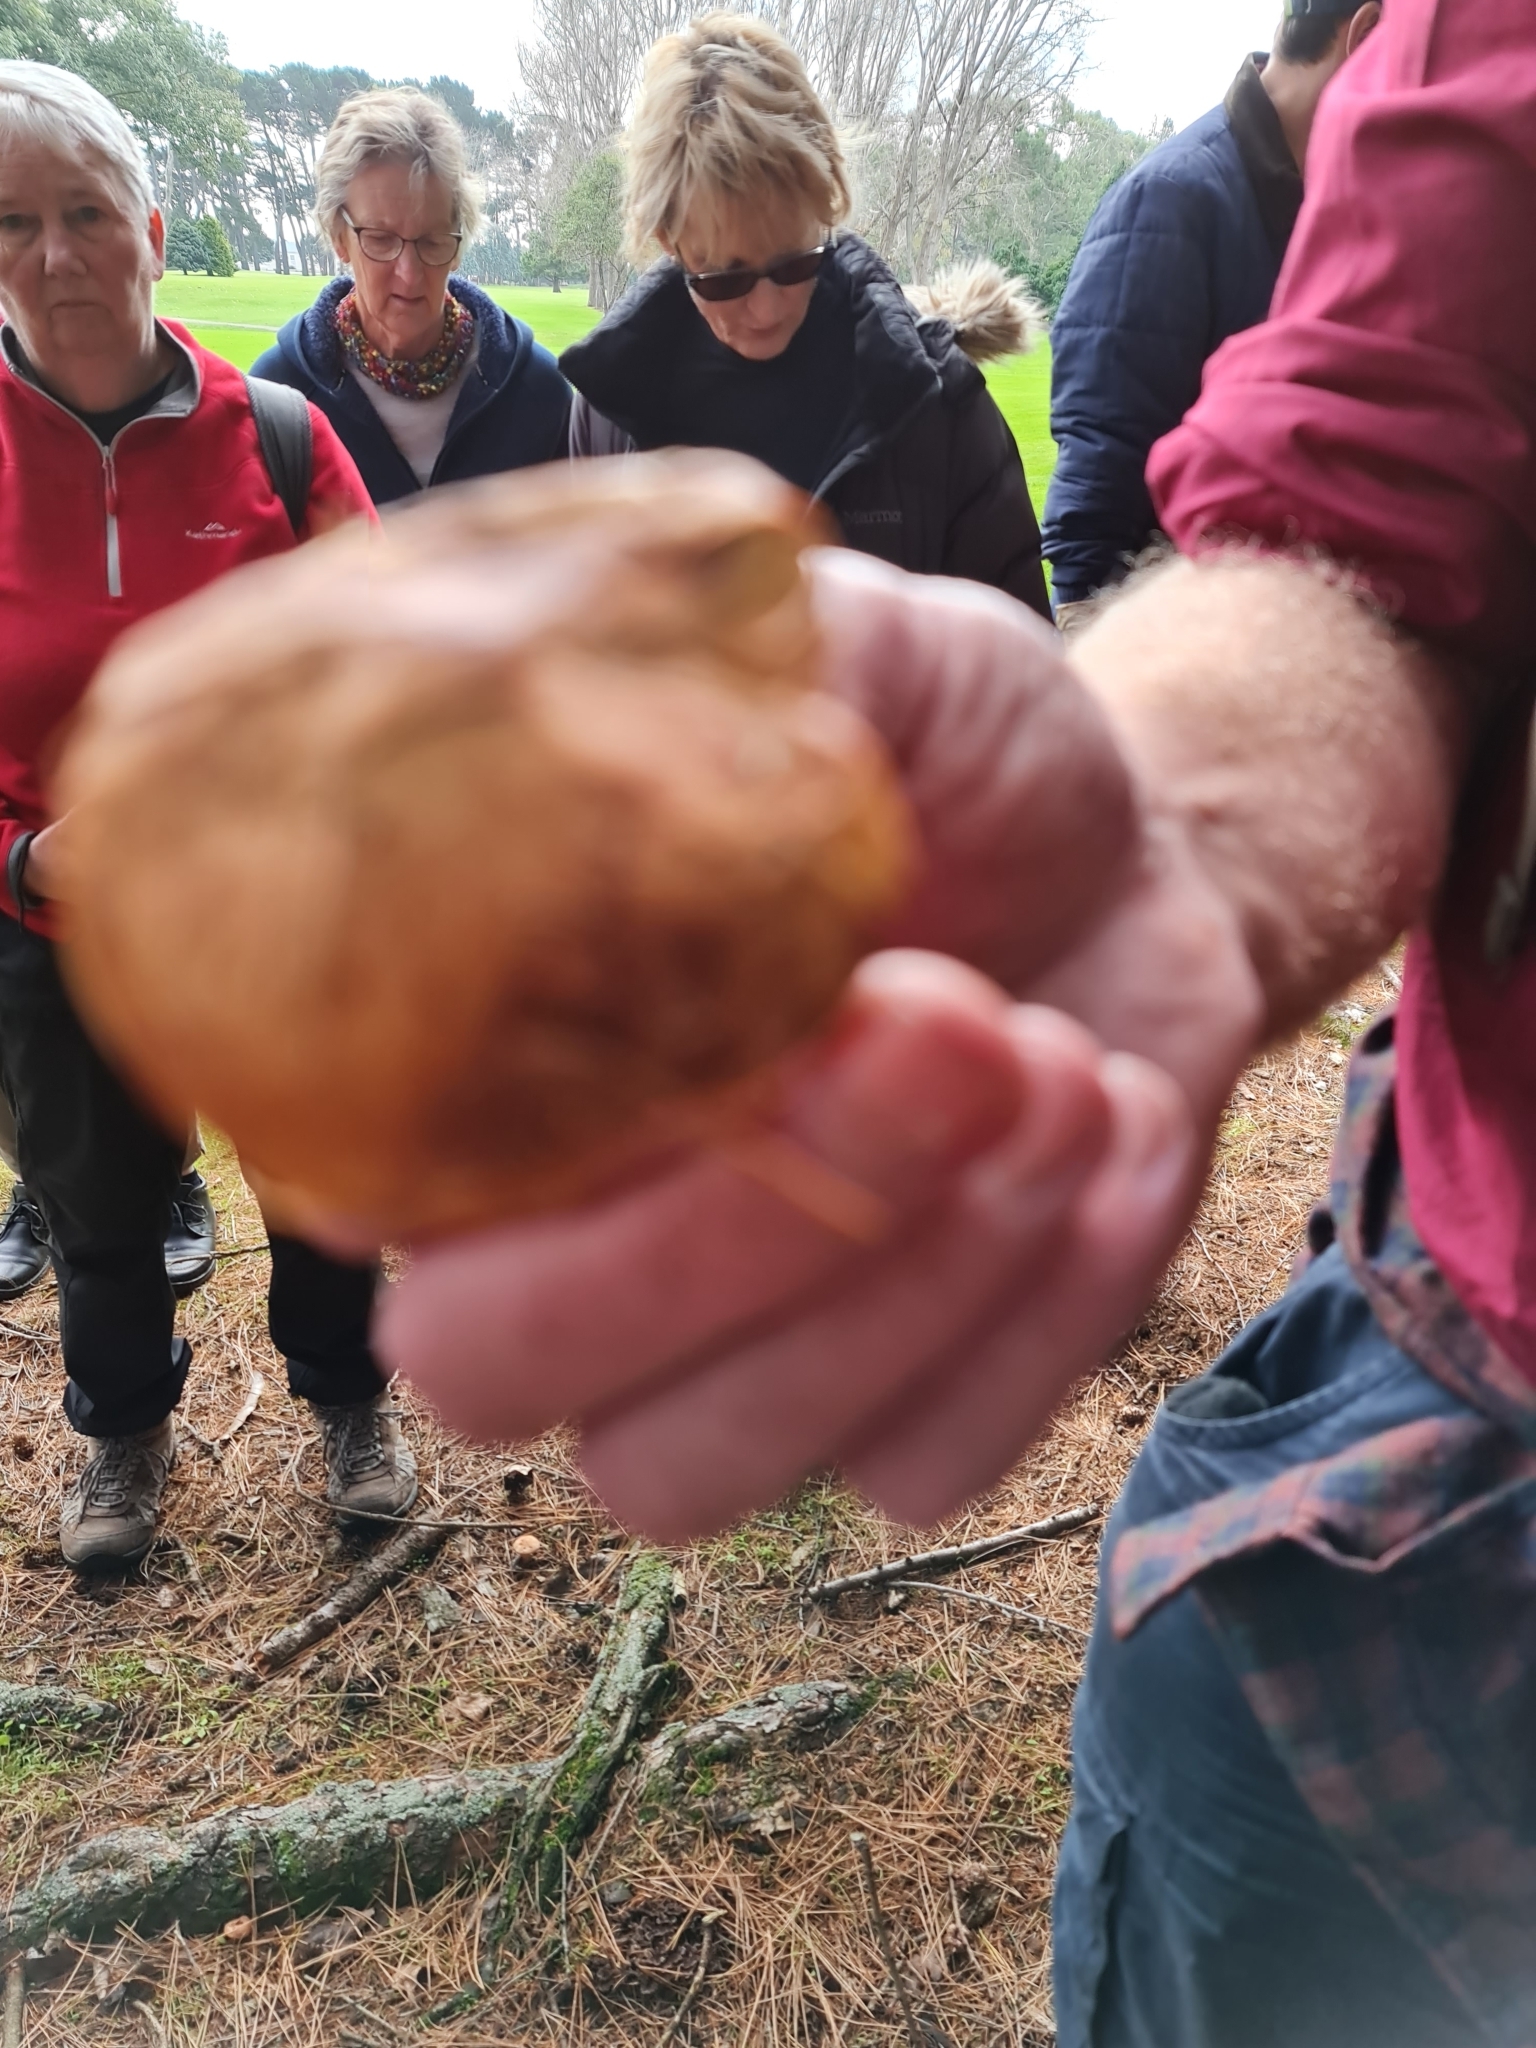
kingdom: Fungi
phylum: Basidiomycota
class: Agaricomycetes
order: Boletales
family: Suillaceae
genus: Suillus
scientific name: Suillus grevillei
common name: Larch bolete
